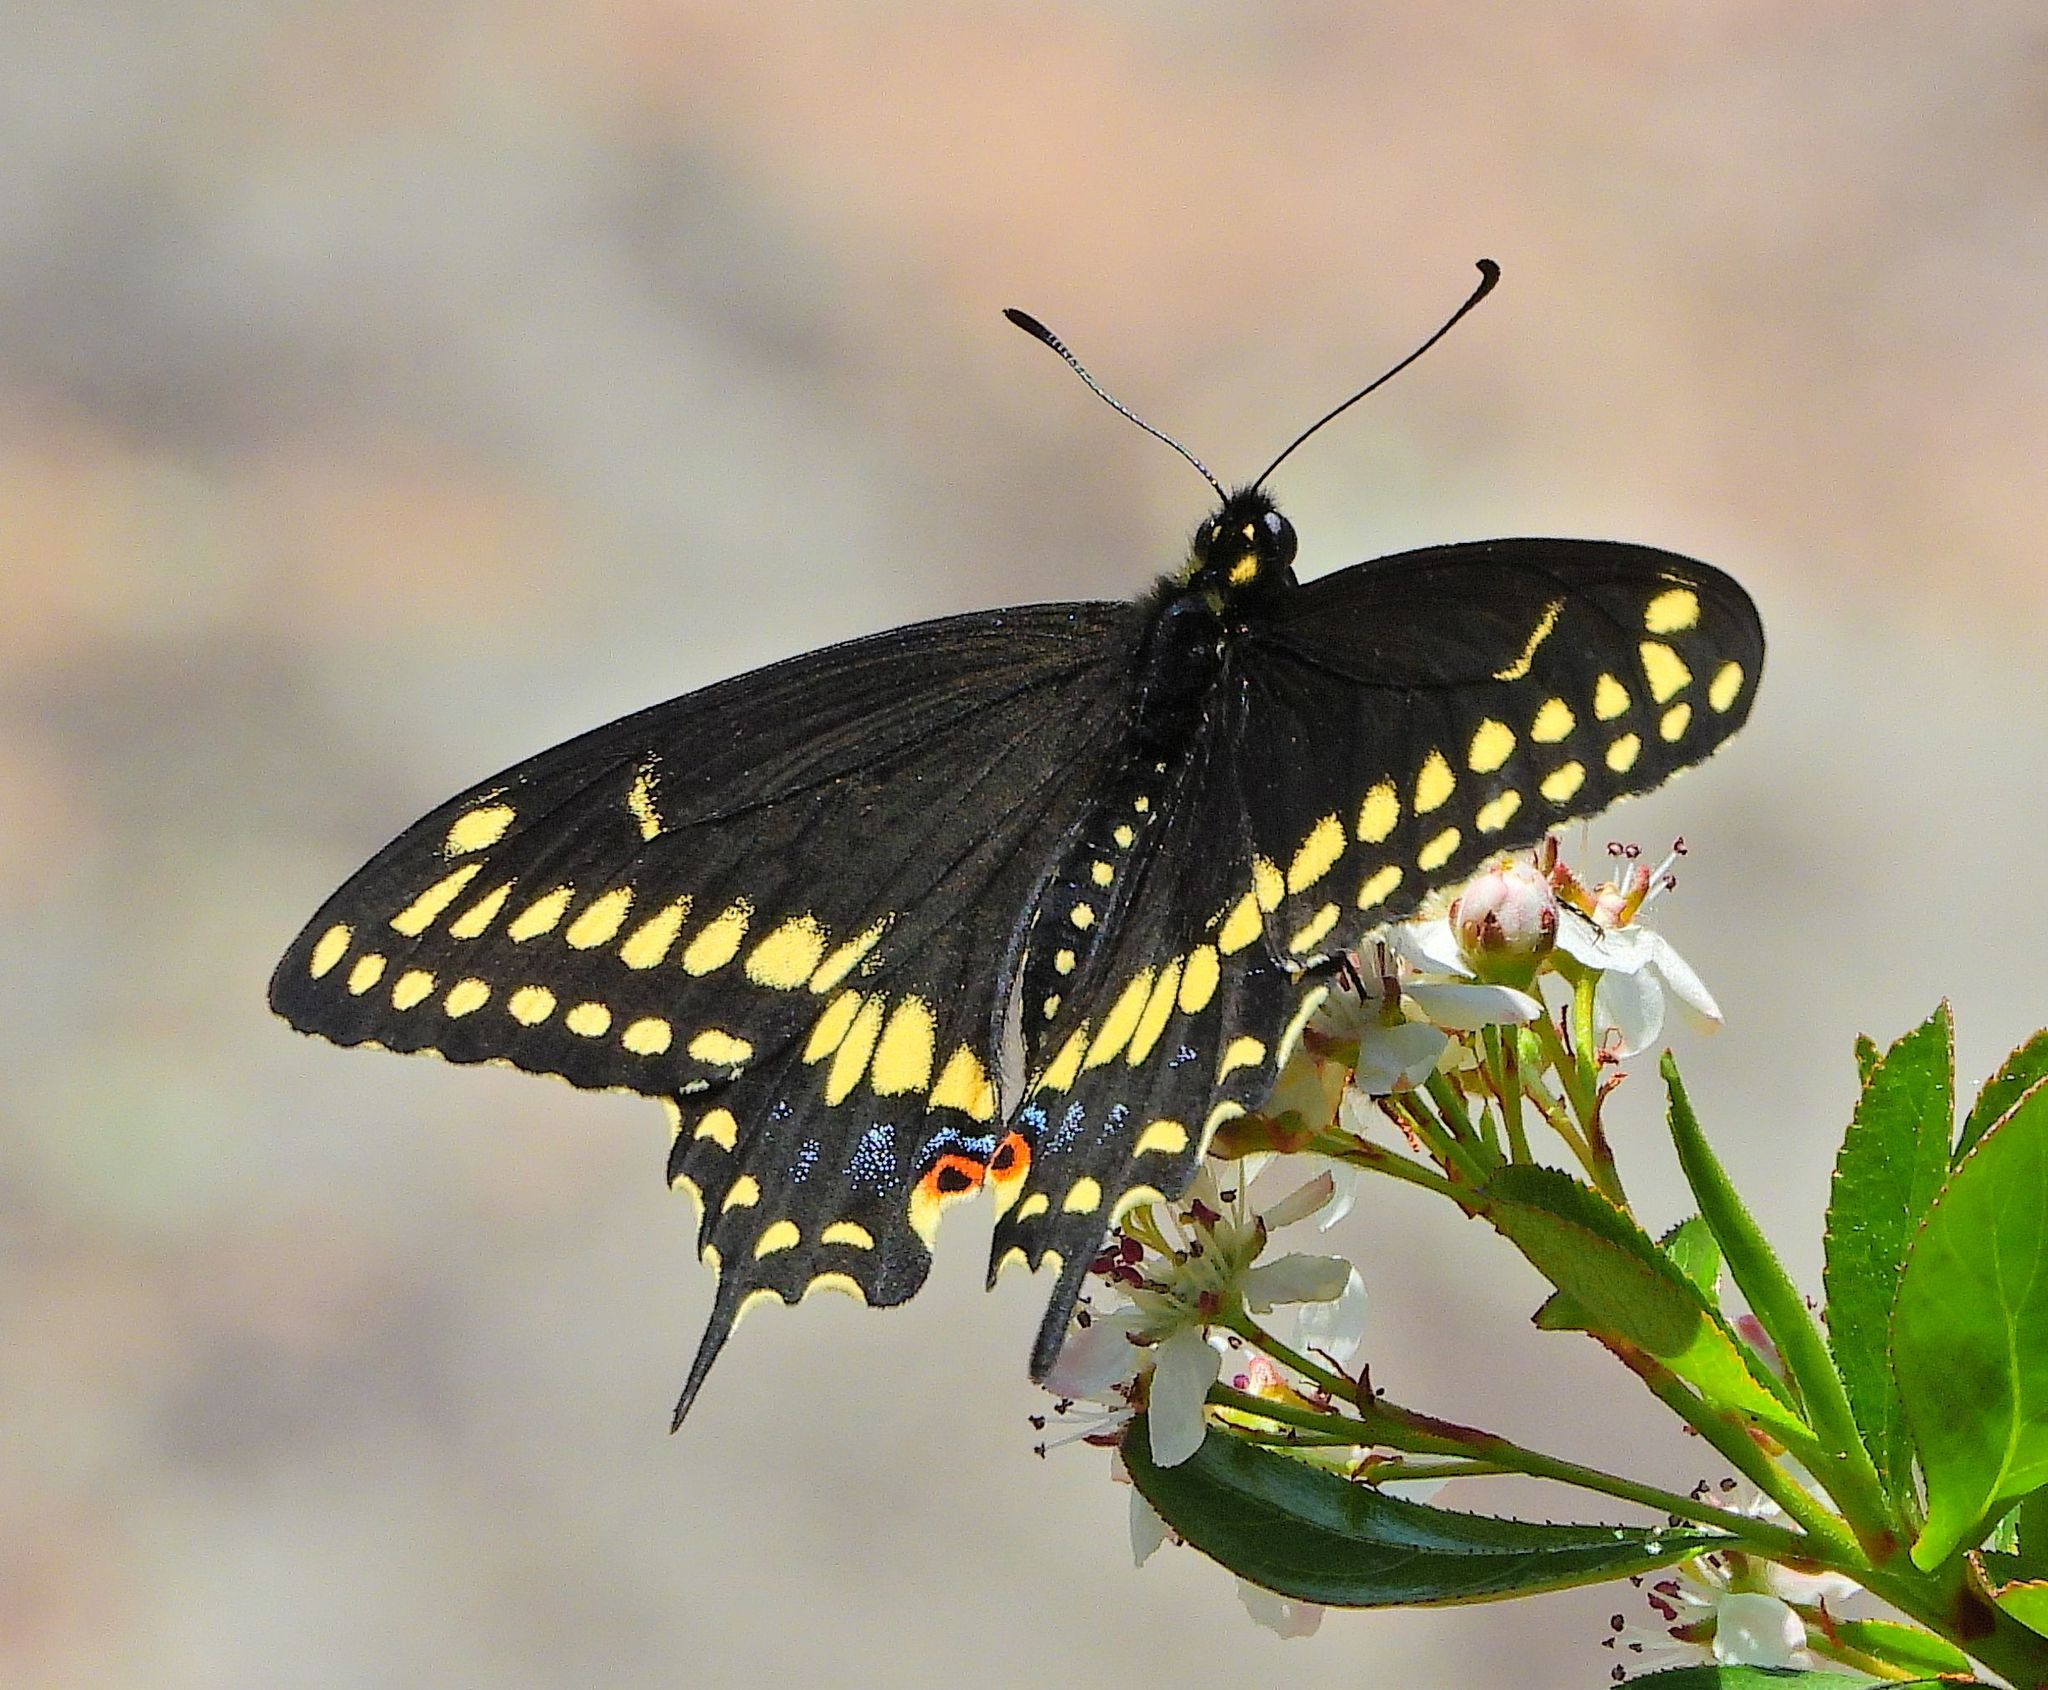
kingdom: Animalia
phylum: Arthropoda
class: Insecta
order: Lepidoptera
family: Papilionidae
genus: Papilio
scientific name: Papilio polyxenes
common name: Black swallowtail
